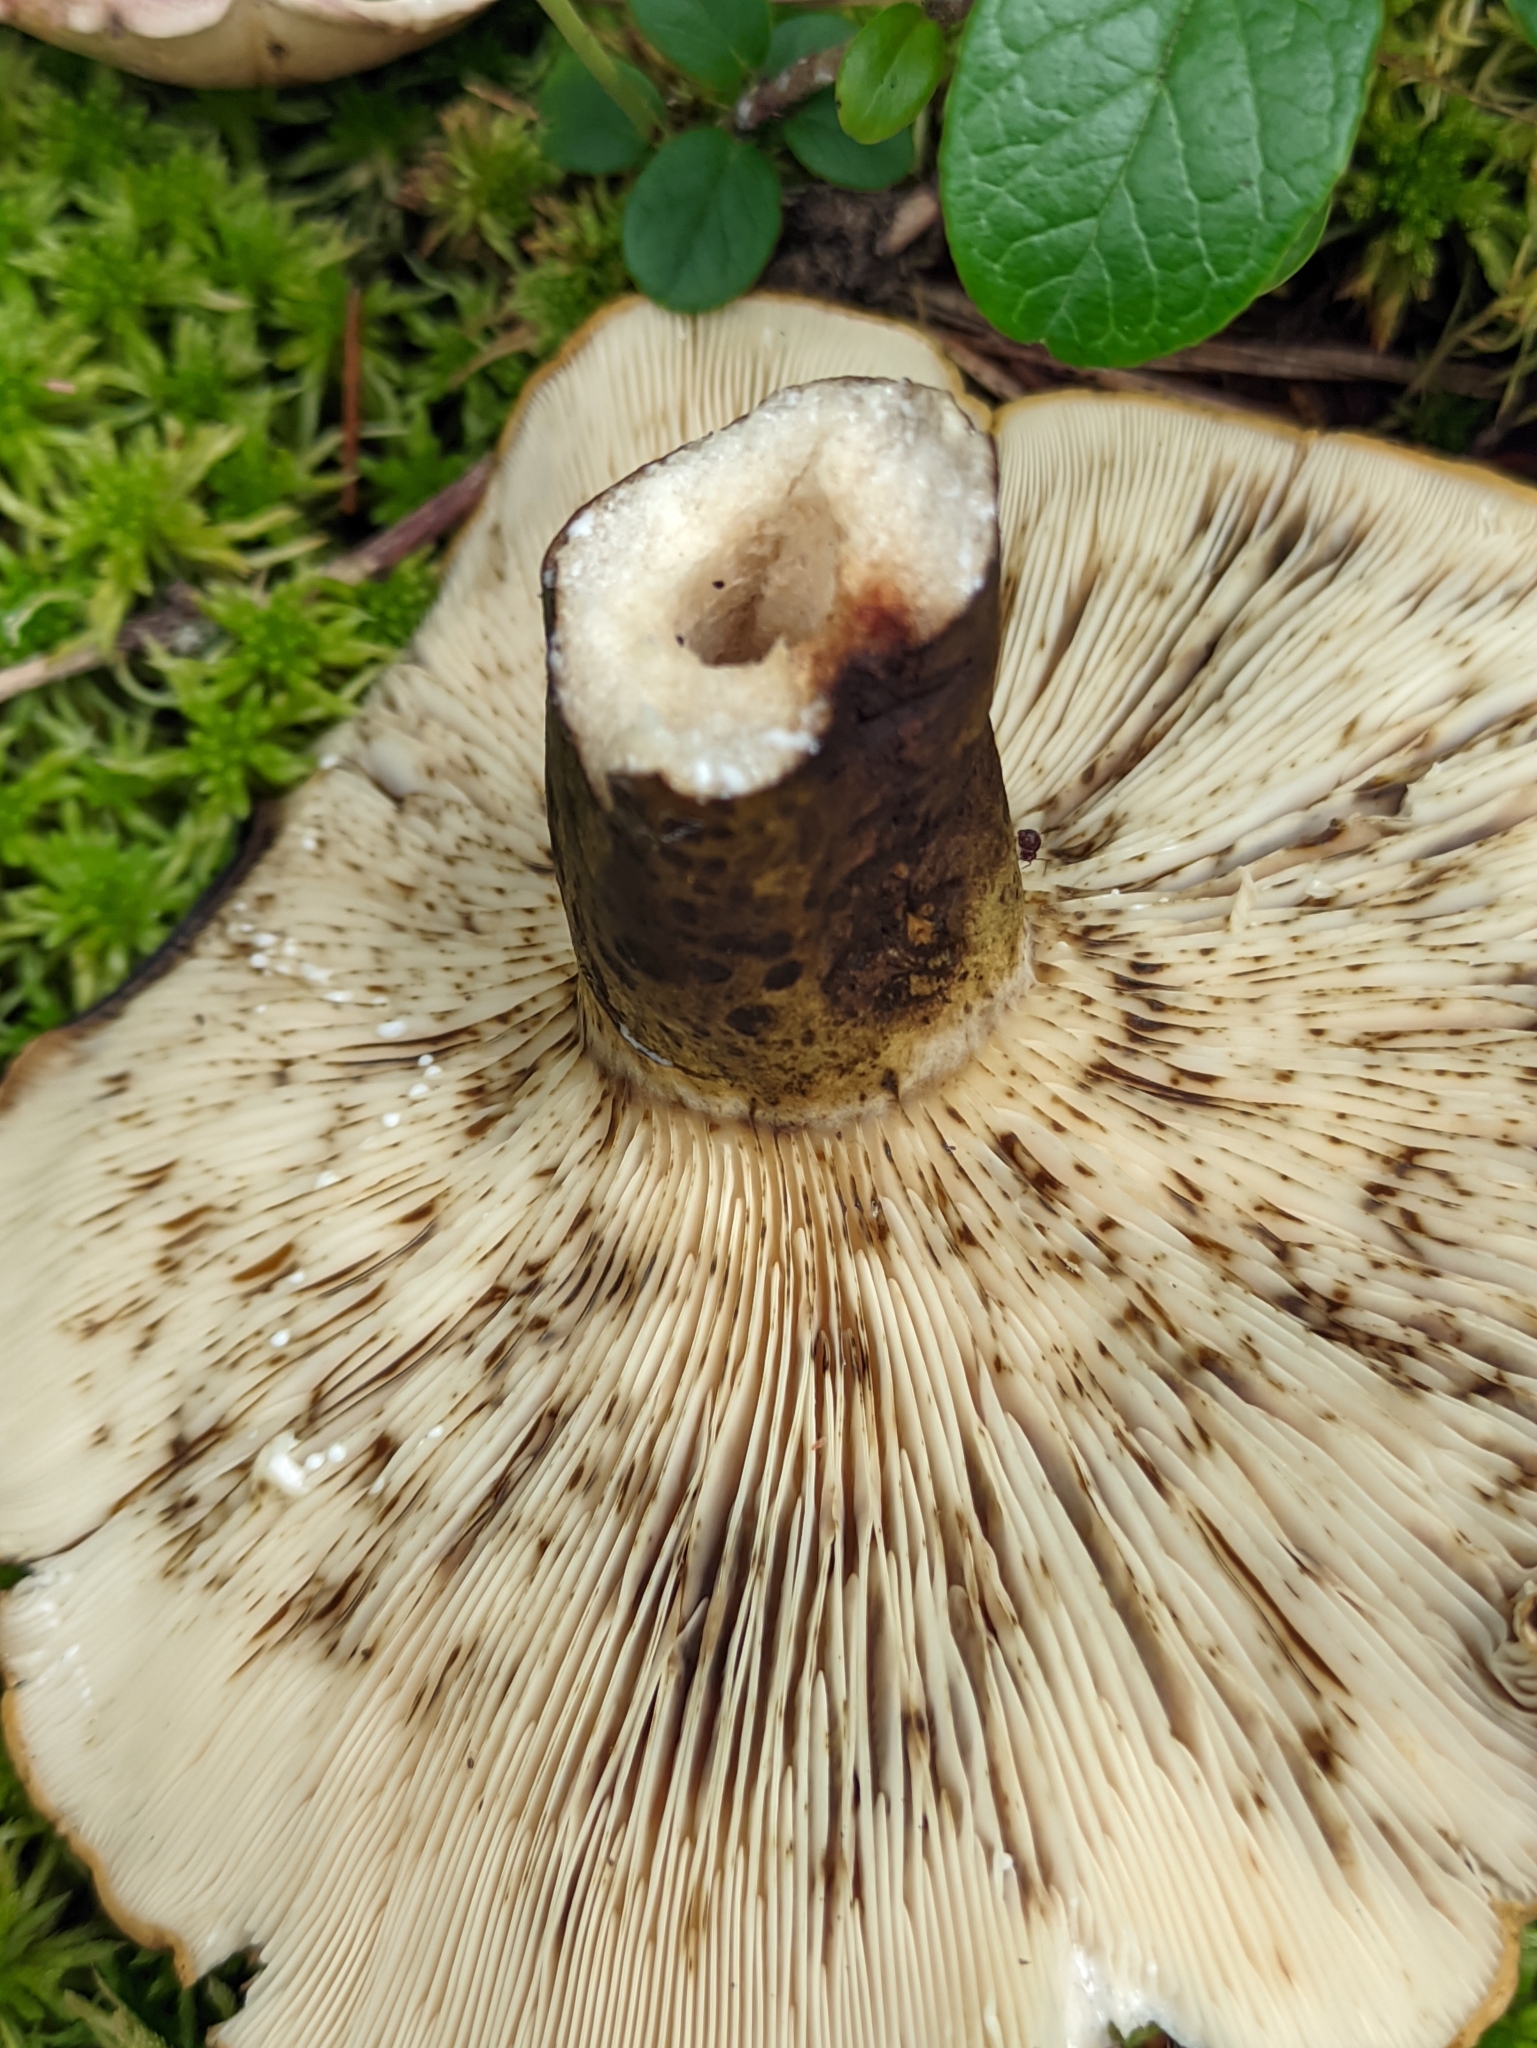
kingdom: Fungi
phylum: Basidiomycota
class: Agaricomycetes
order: Russulales
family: Russulaceae
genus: Lactarius
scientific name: Lactarius turpis
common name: Ugly milk-cap
